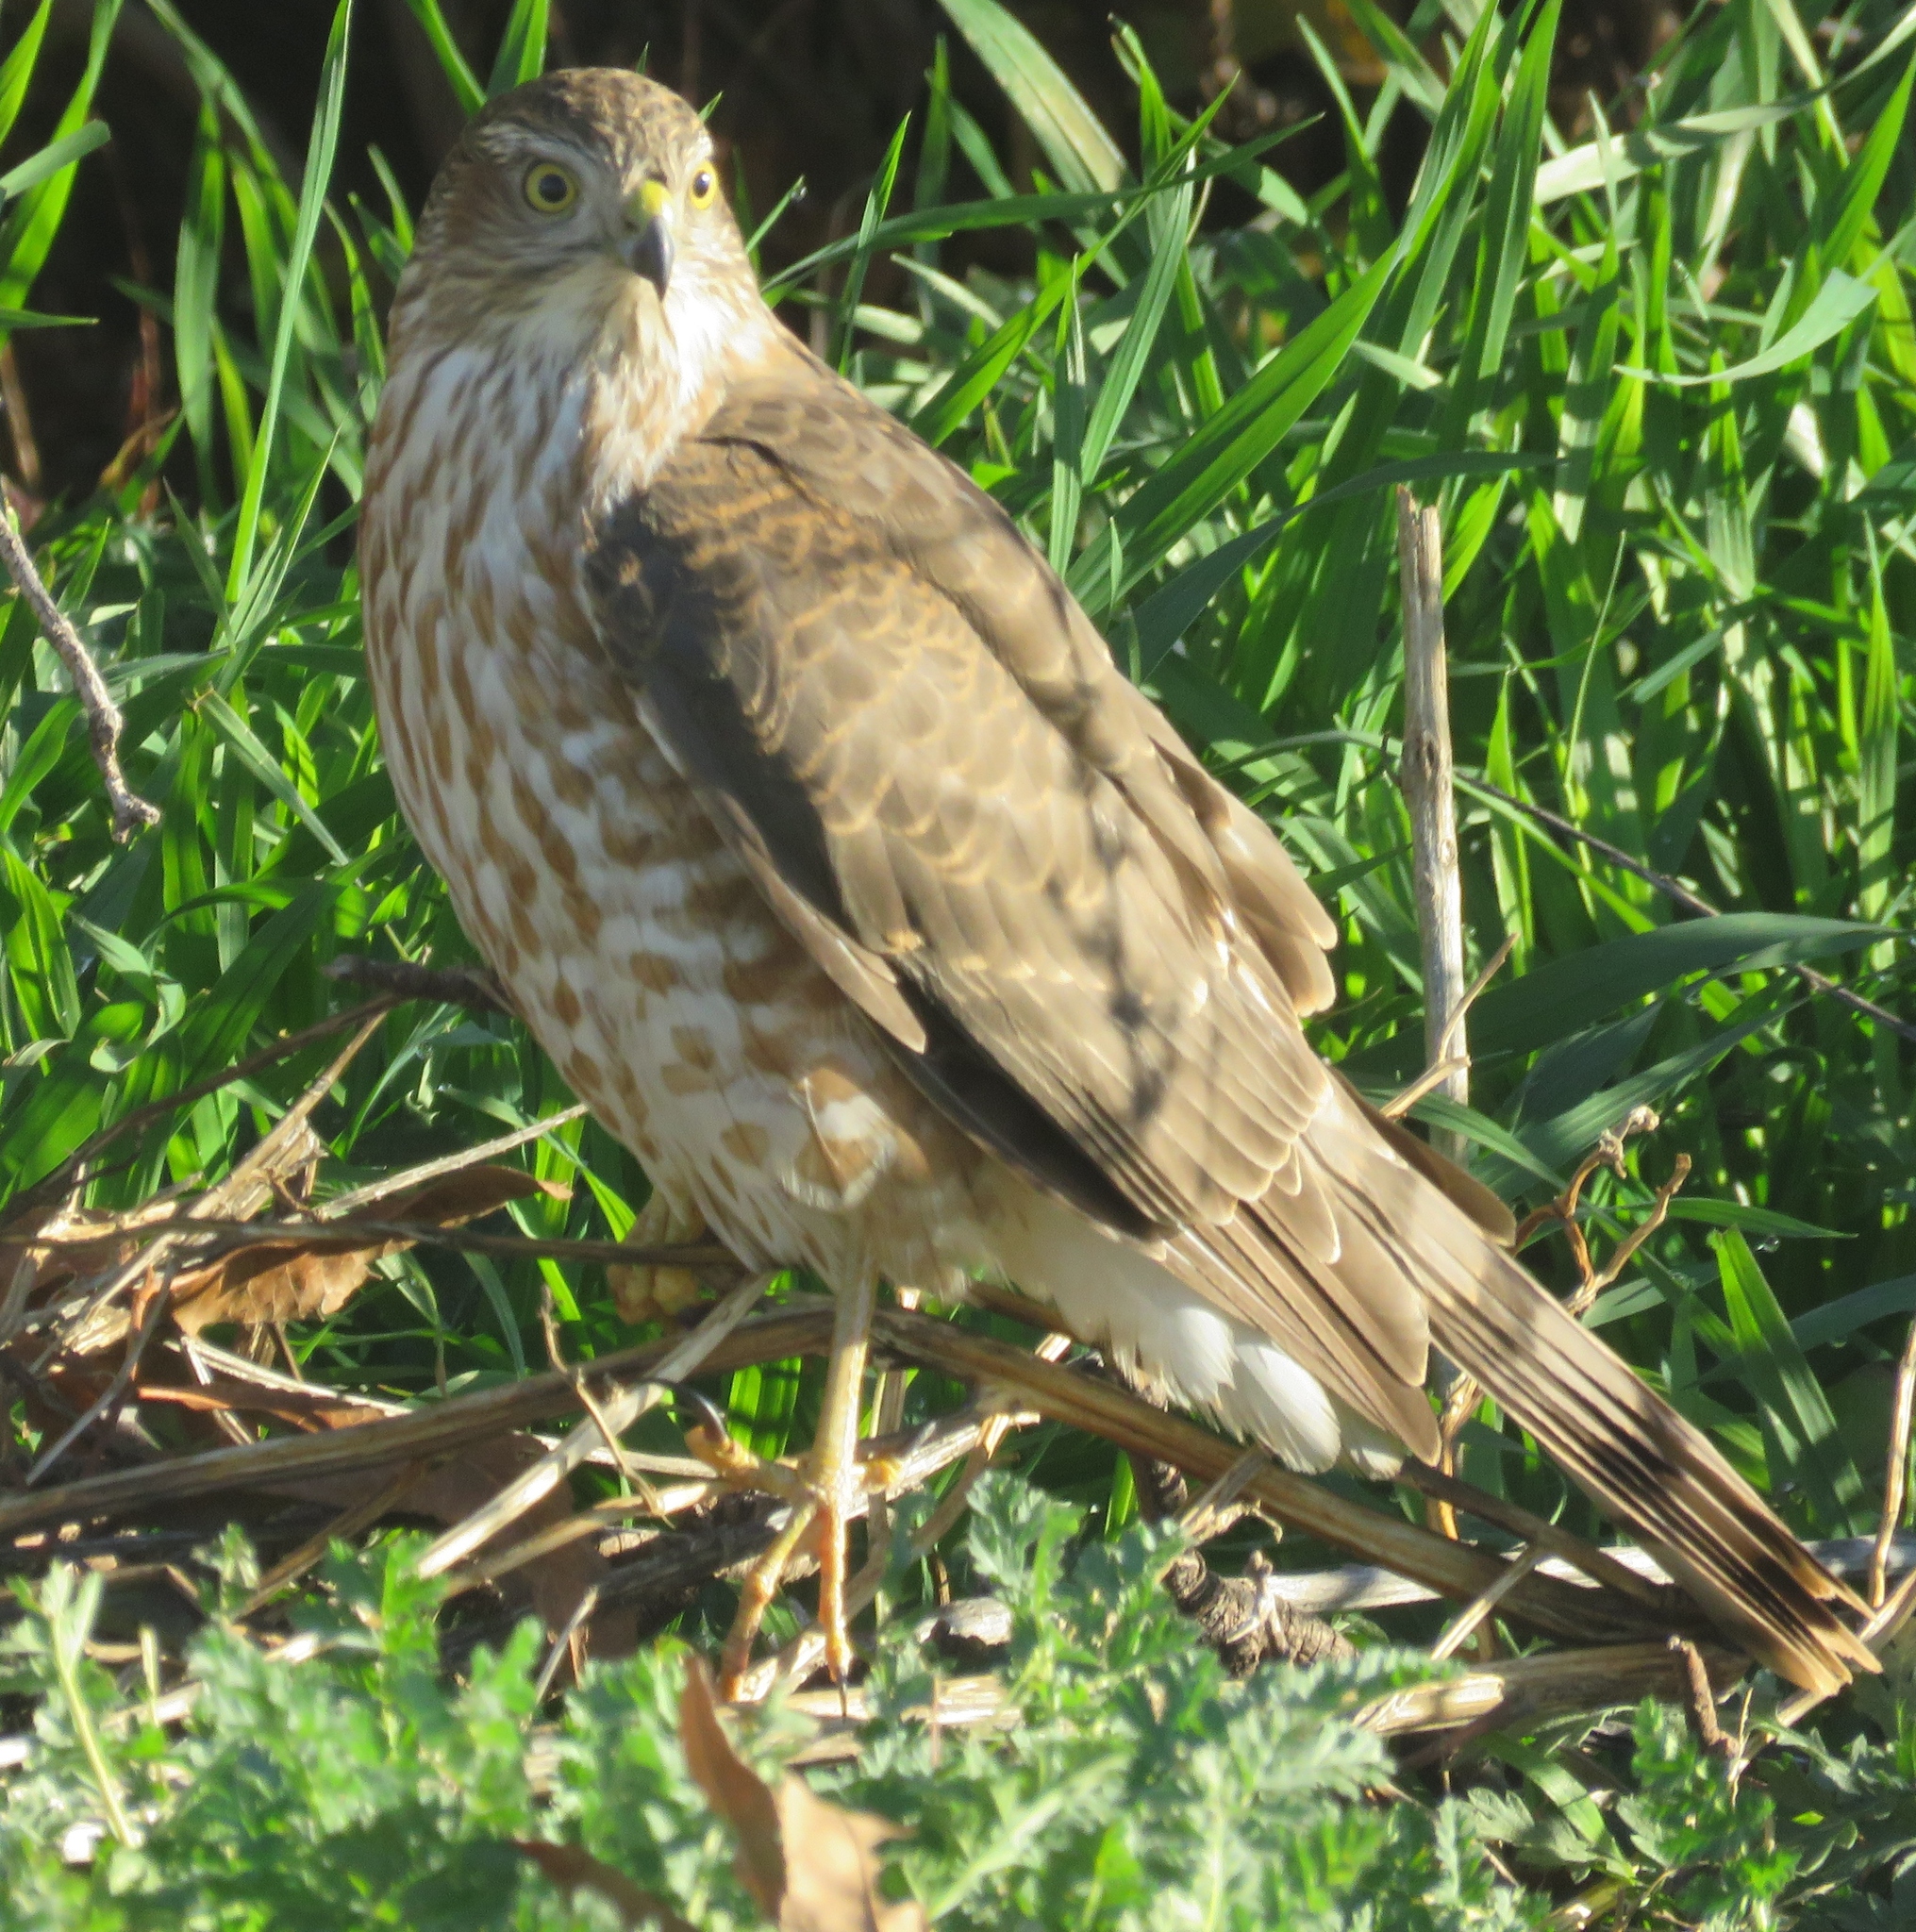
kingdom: Animalia
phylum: Chordata
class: Aves
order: Accipitriformes
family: Accipitridae
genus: Accipiter
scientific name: Accipiter striatus
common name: Sharp-shinned hawk
